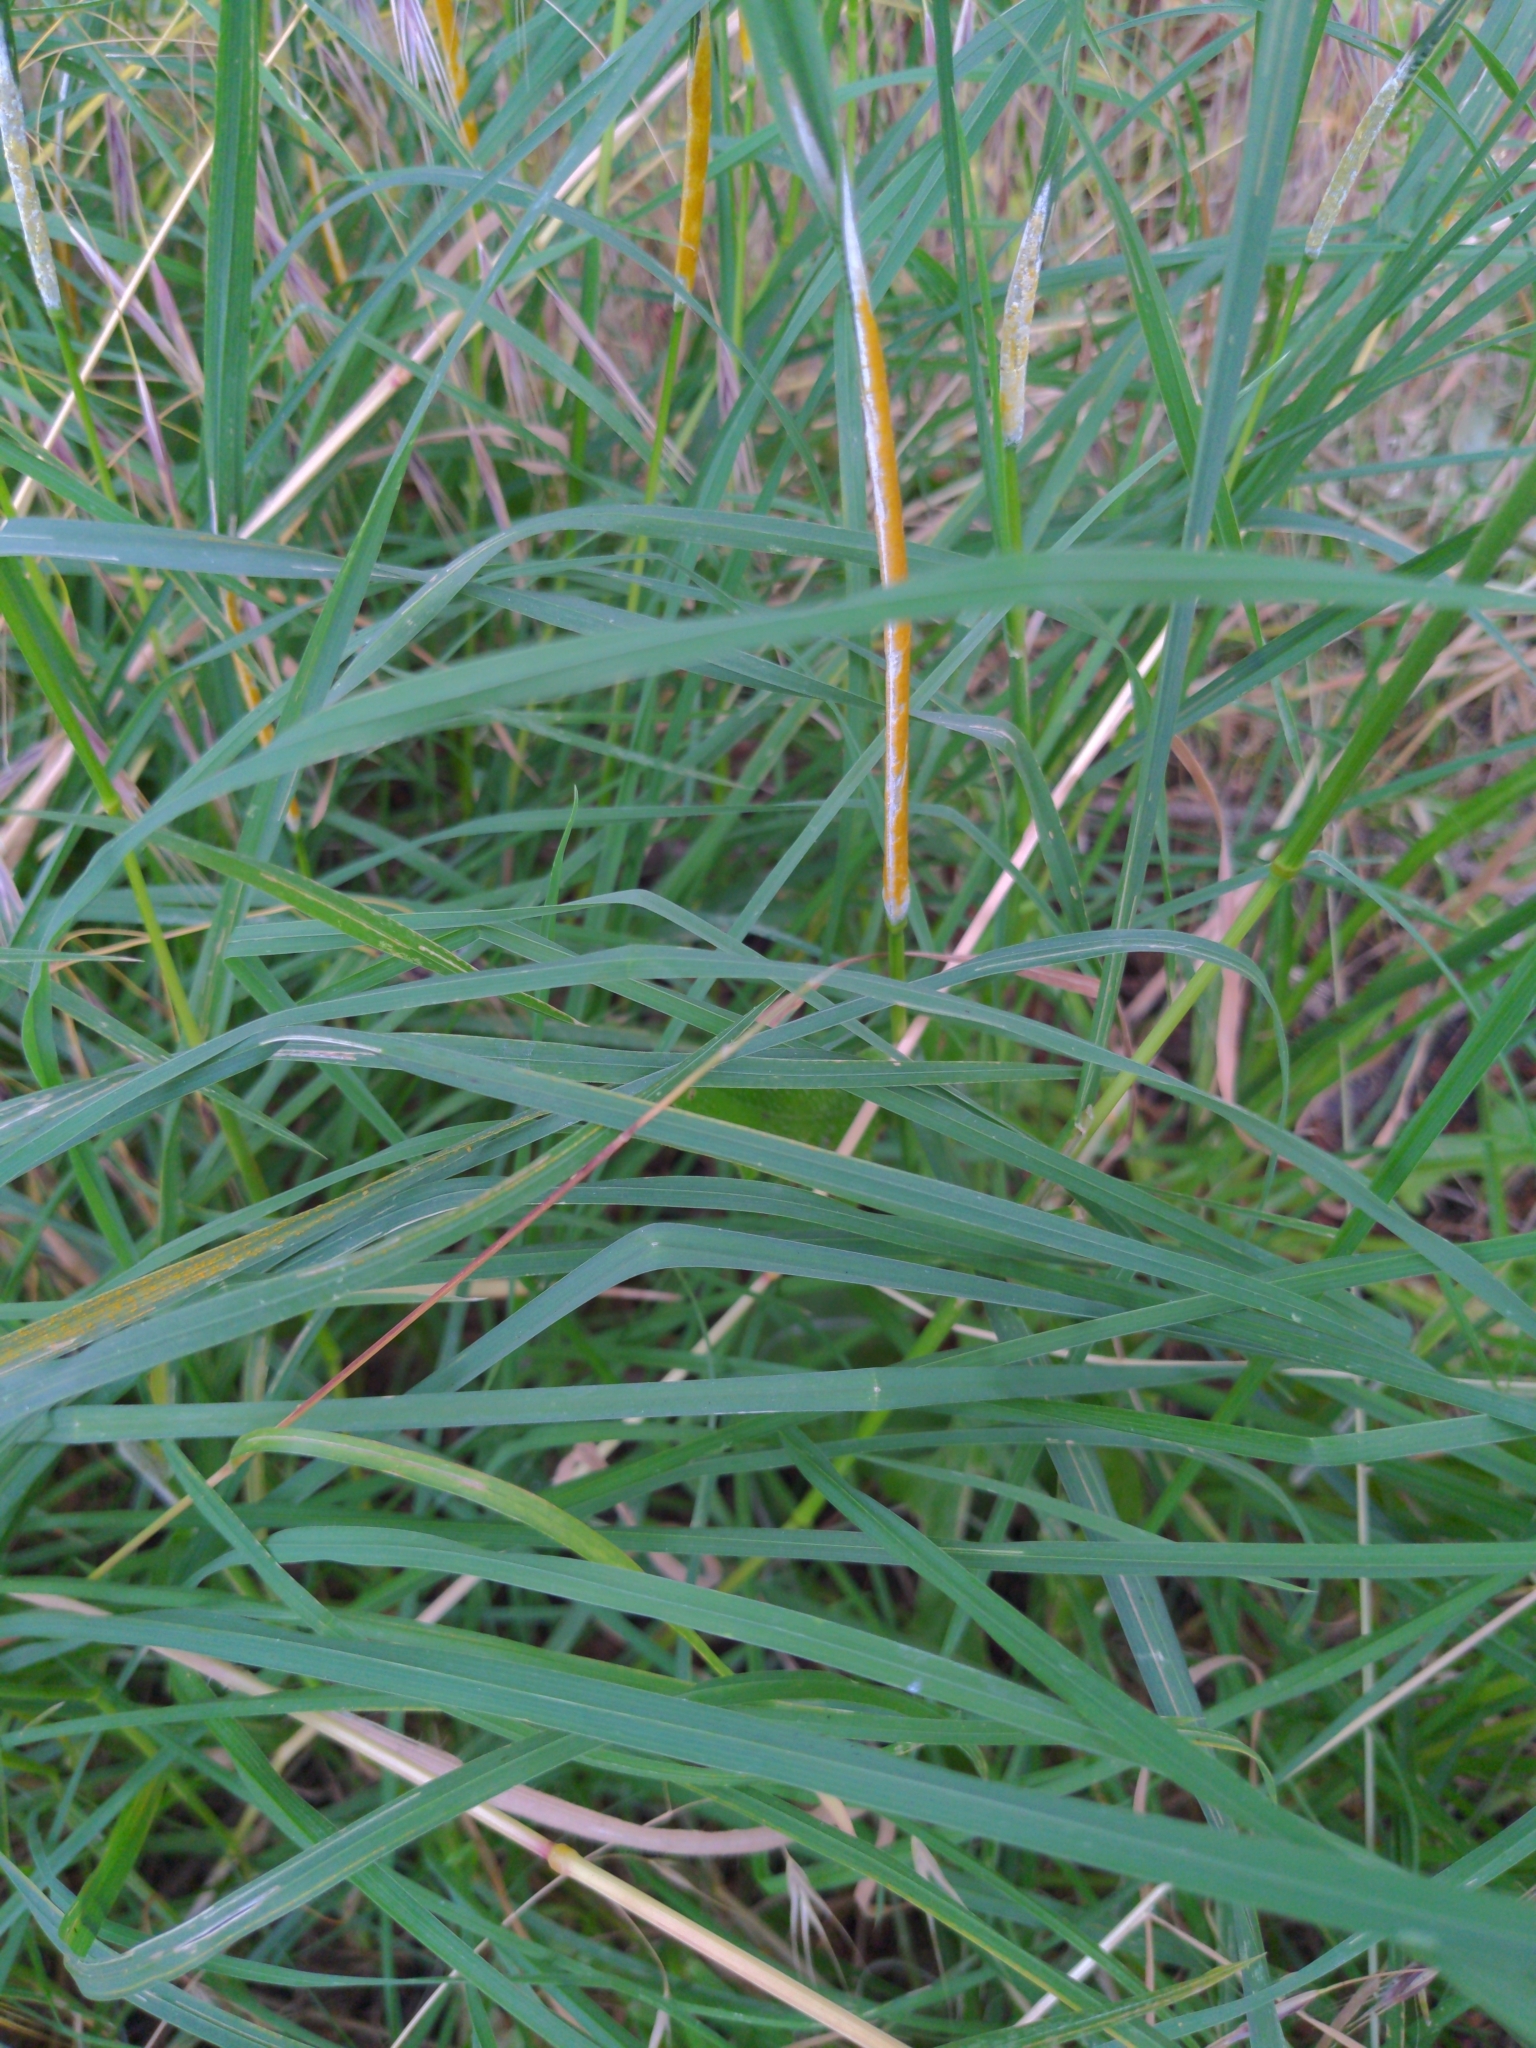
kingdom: Fungi
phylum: Ascomycota
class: Sordariomycetes
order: Hypocreales
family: Clavicipitaceae
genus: Epichloe
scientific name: Epichloe typhina
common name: Choke
